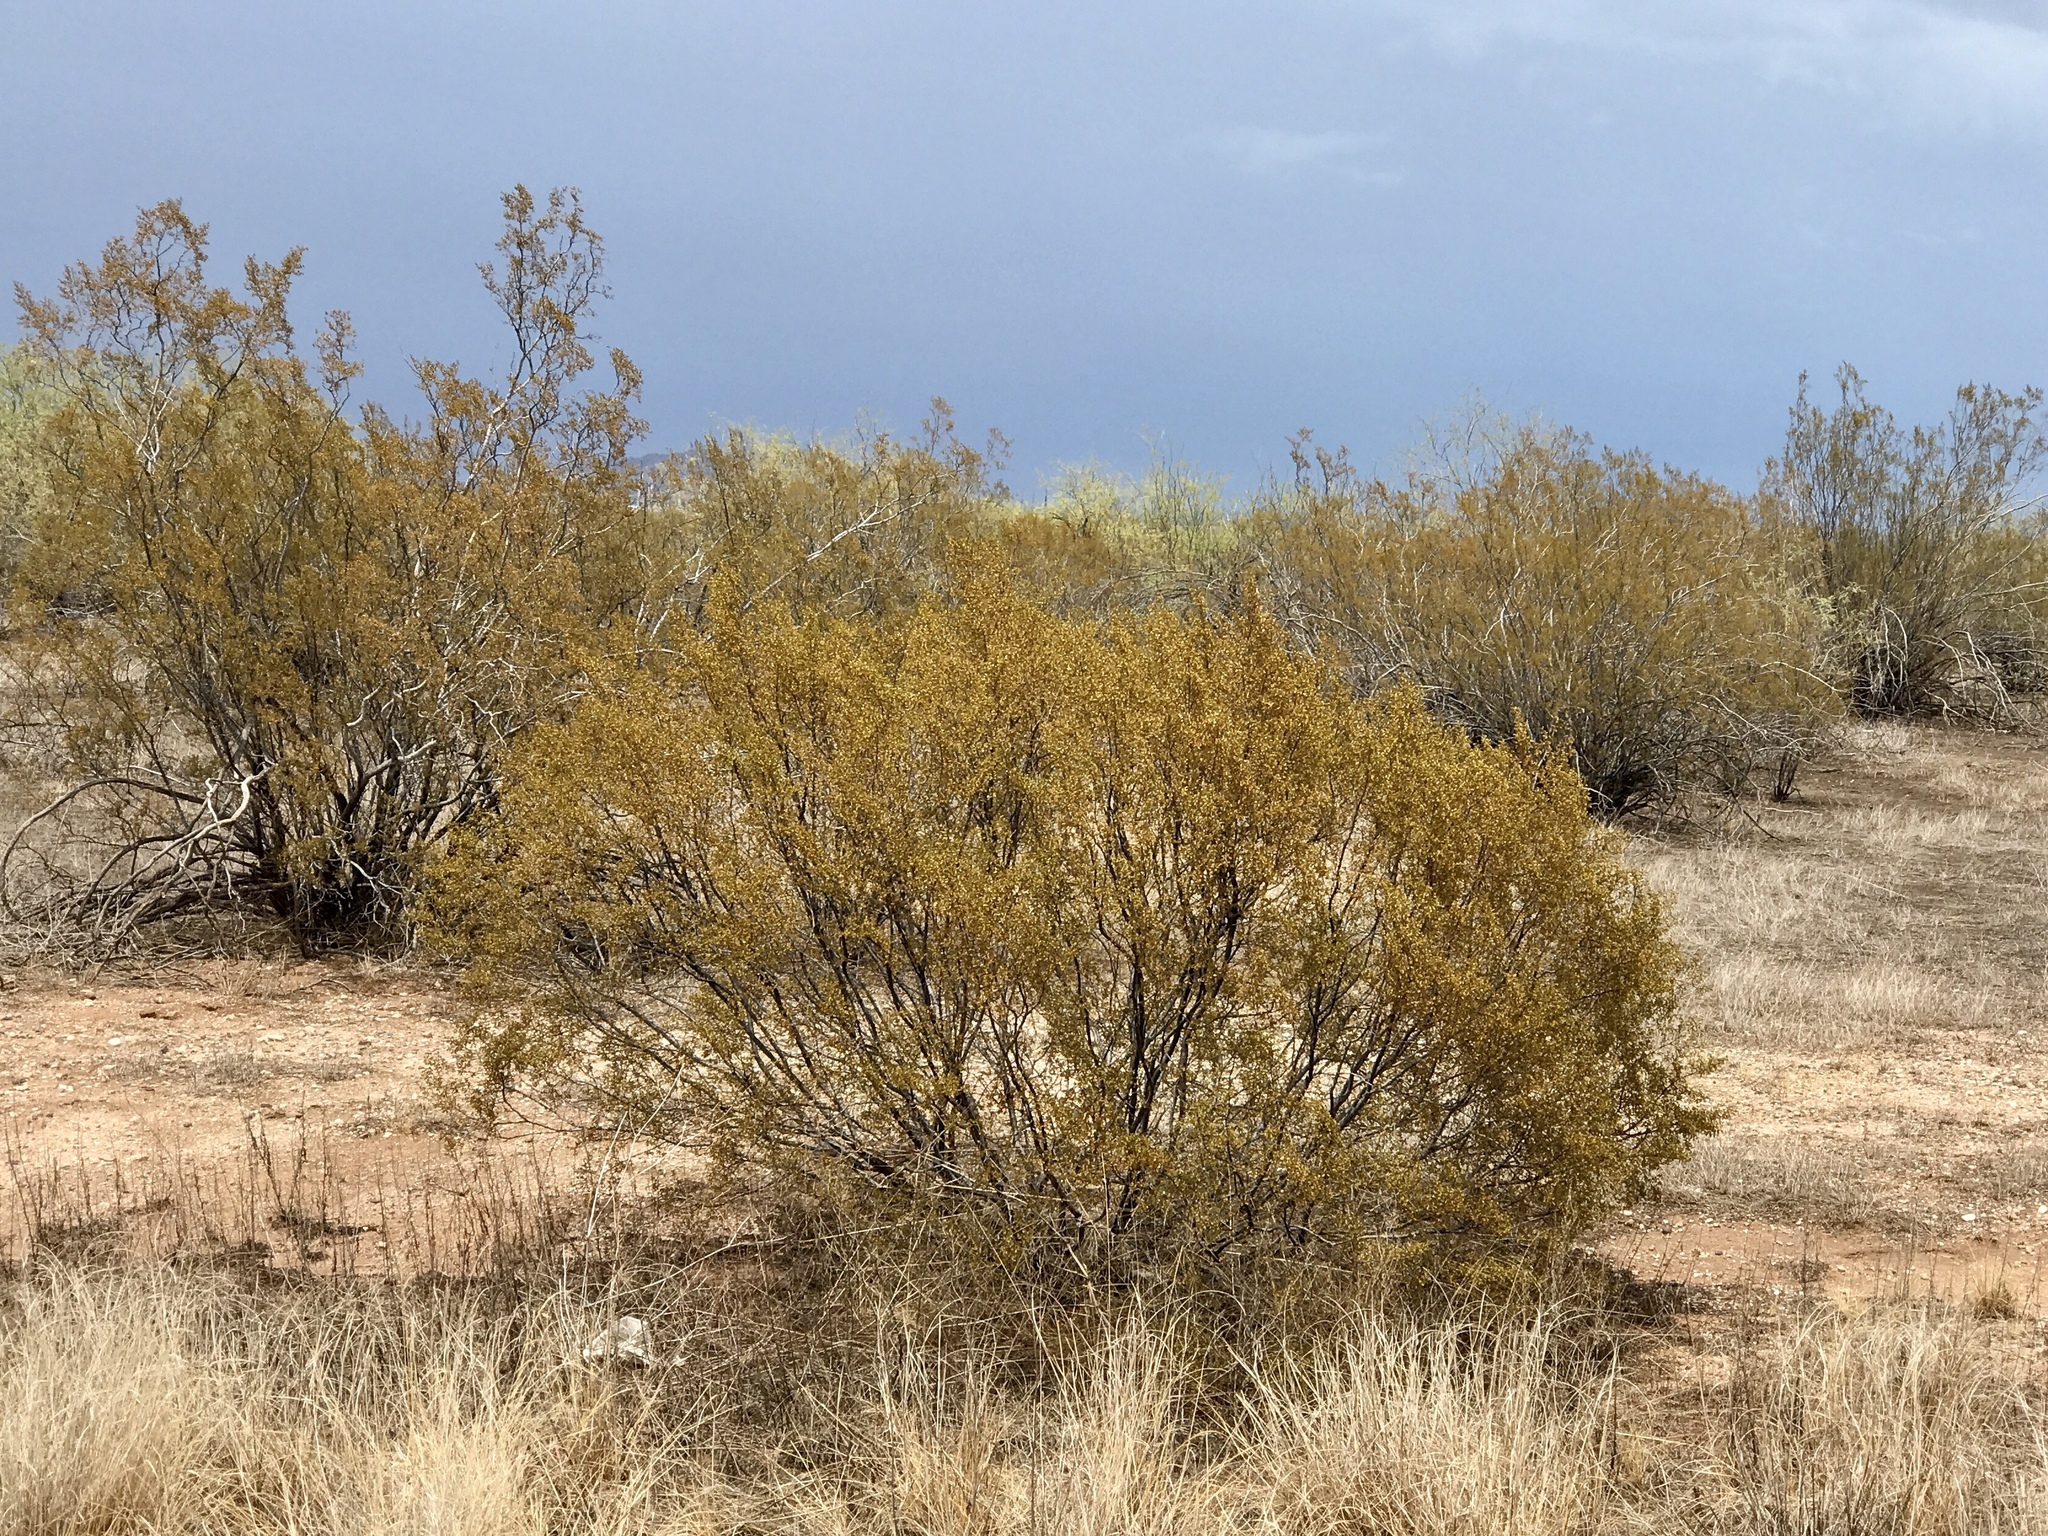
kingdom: Plantae
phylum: Tracheophyta
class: Magnoliopsida
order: Zygophyllales
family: Zygophyllaceae
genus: Larrea
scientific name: Larrea tridentata
